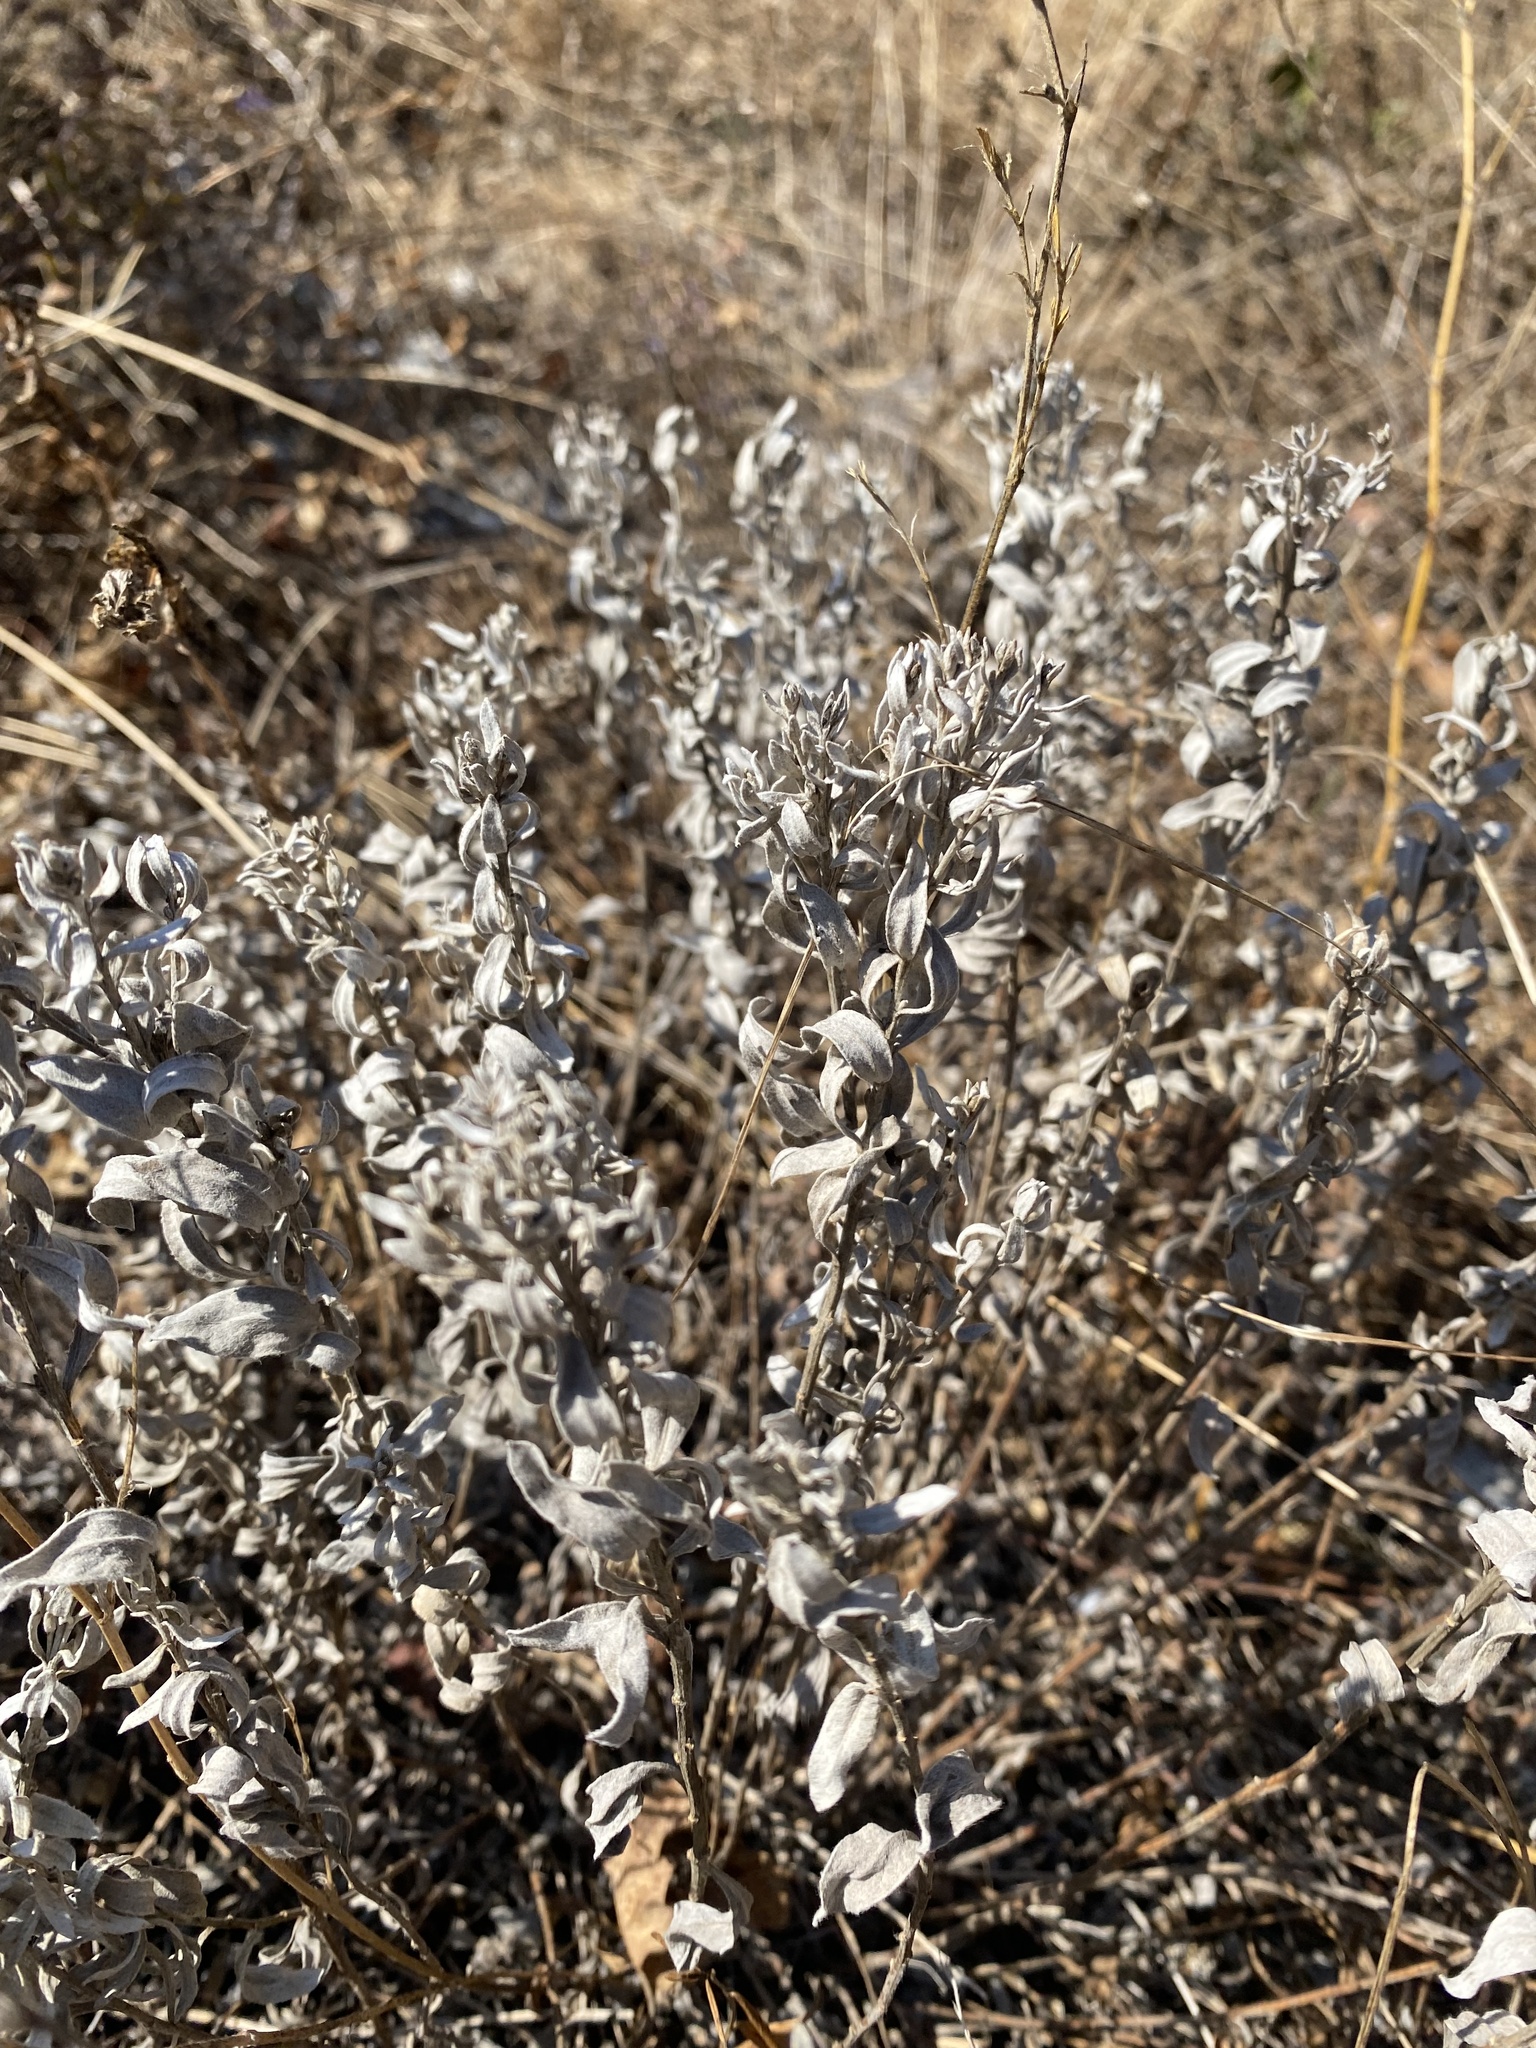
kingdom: Plantae
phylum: Tracheophyta
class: Magnoliopsida
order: Asterales
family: Asteraceae
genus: Galatella
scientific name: Galatella villosa
